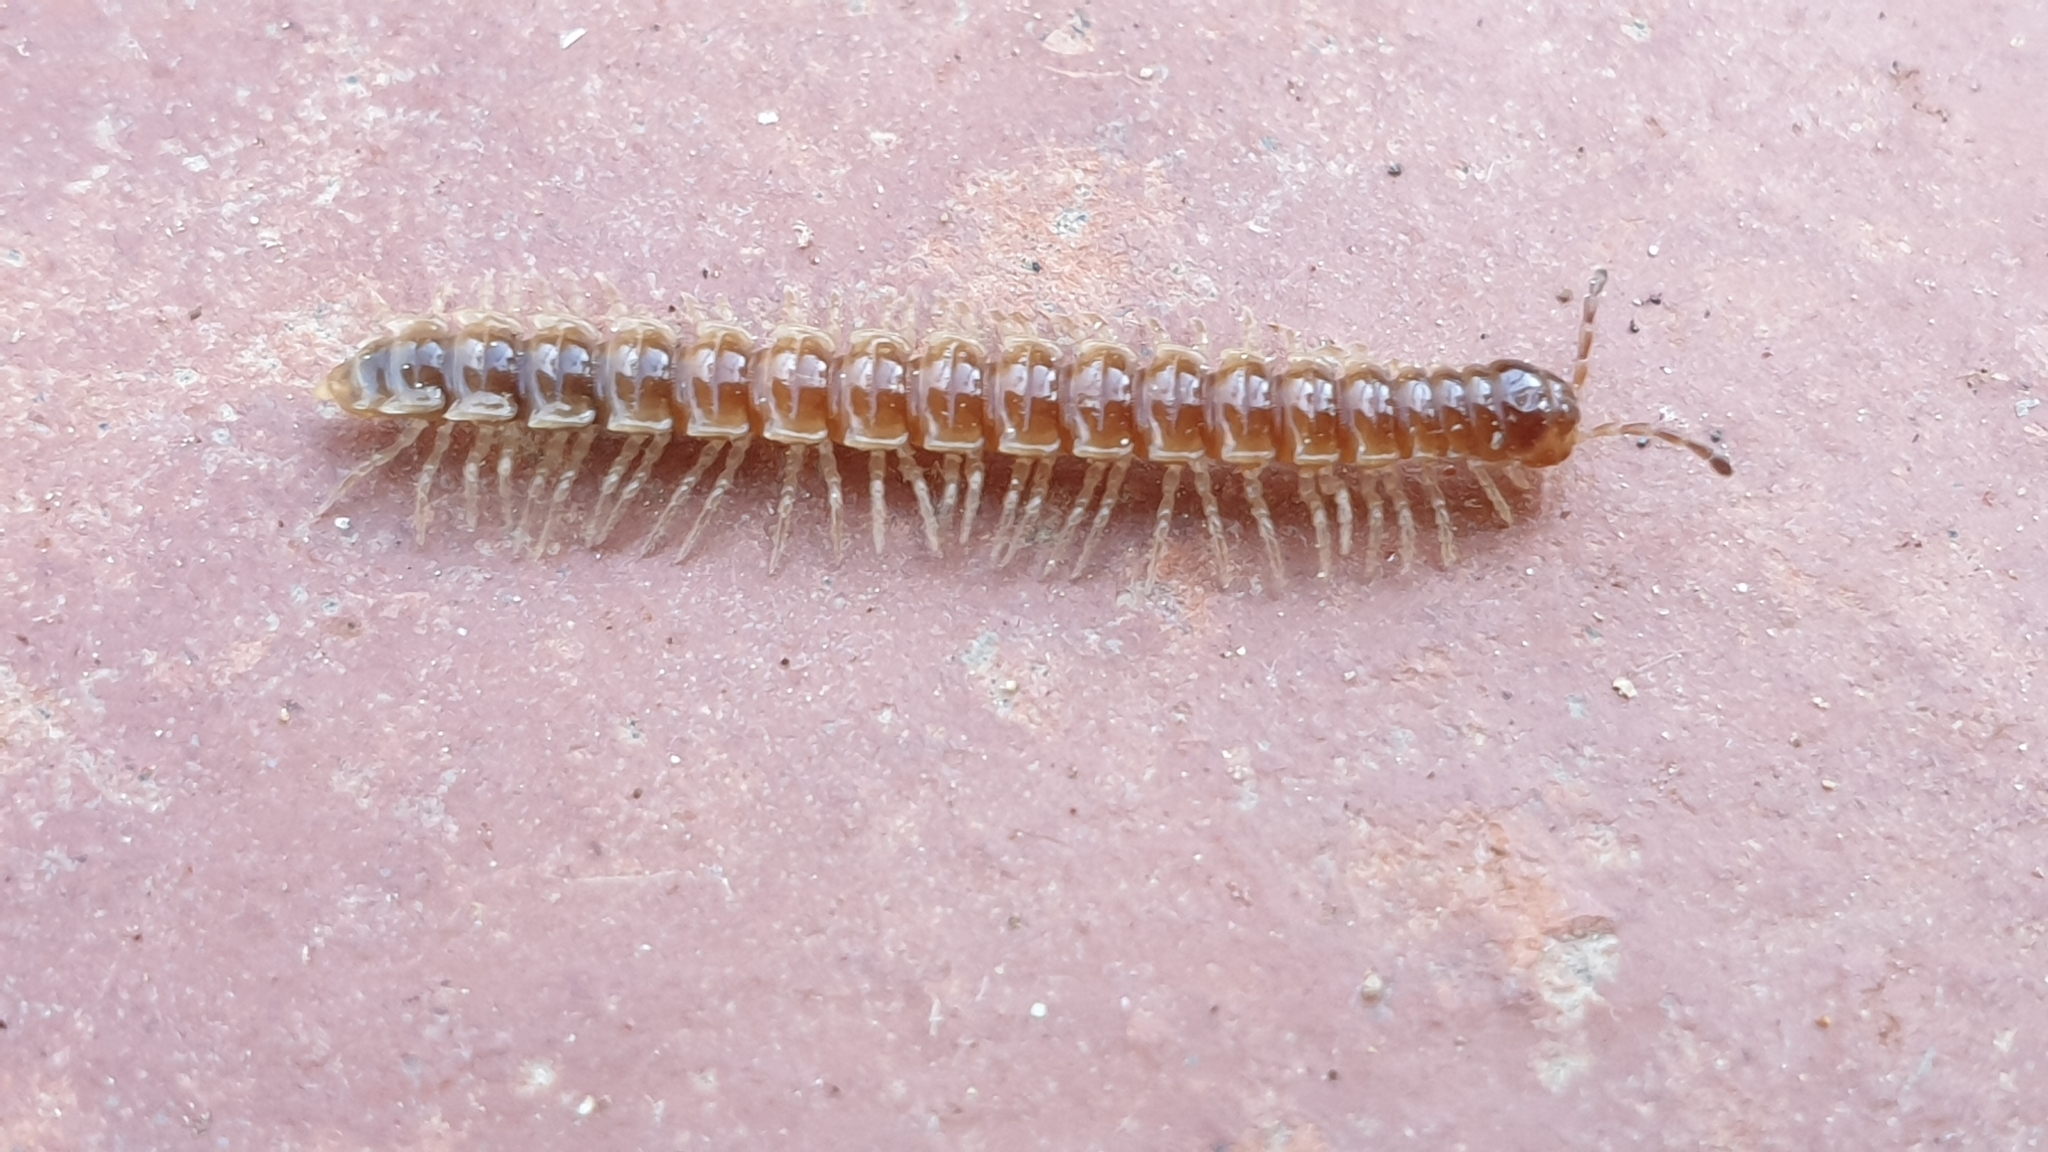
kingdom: Animalia
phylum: Arthropoda
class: Diplopoda
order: Polydesmida
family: Paradoxosomatidae
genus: Oxidus
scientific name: Oxidus gracilis
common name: Greenhouse millipede
